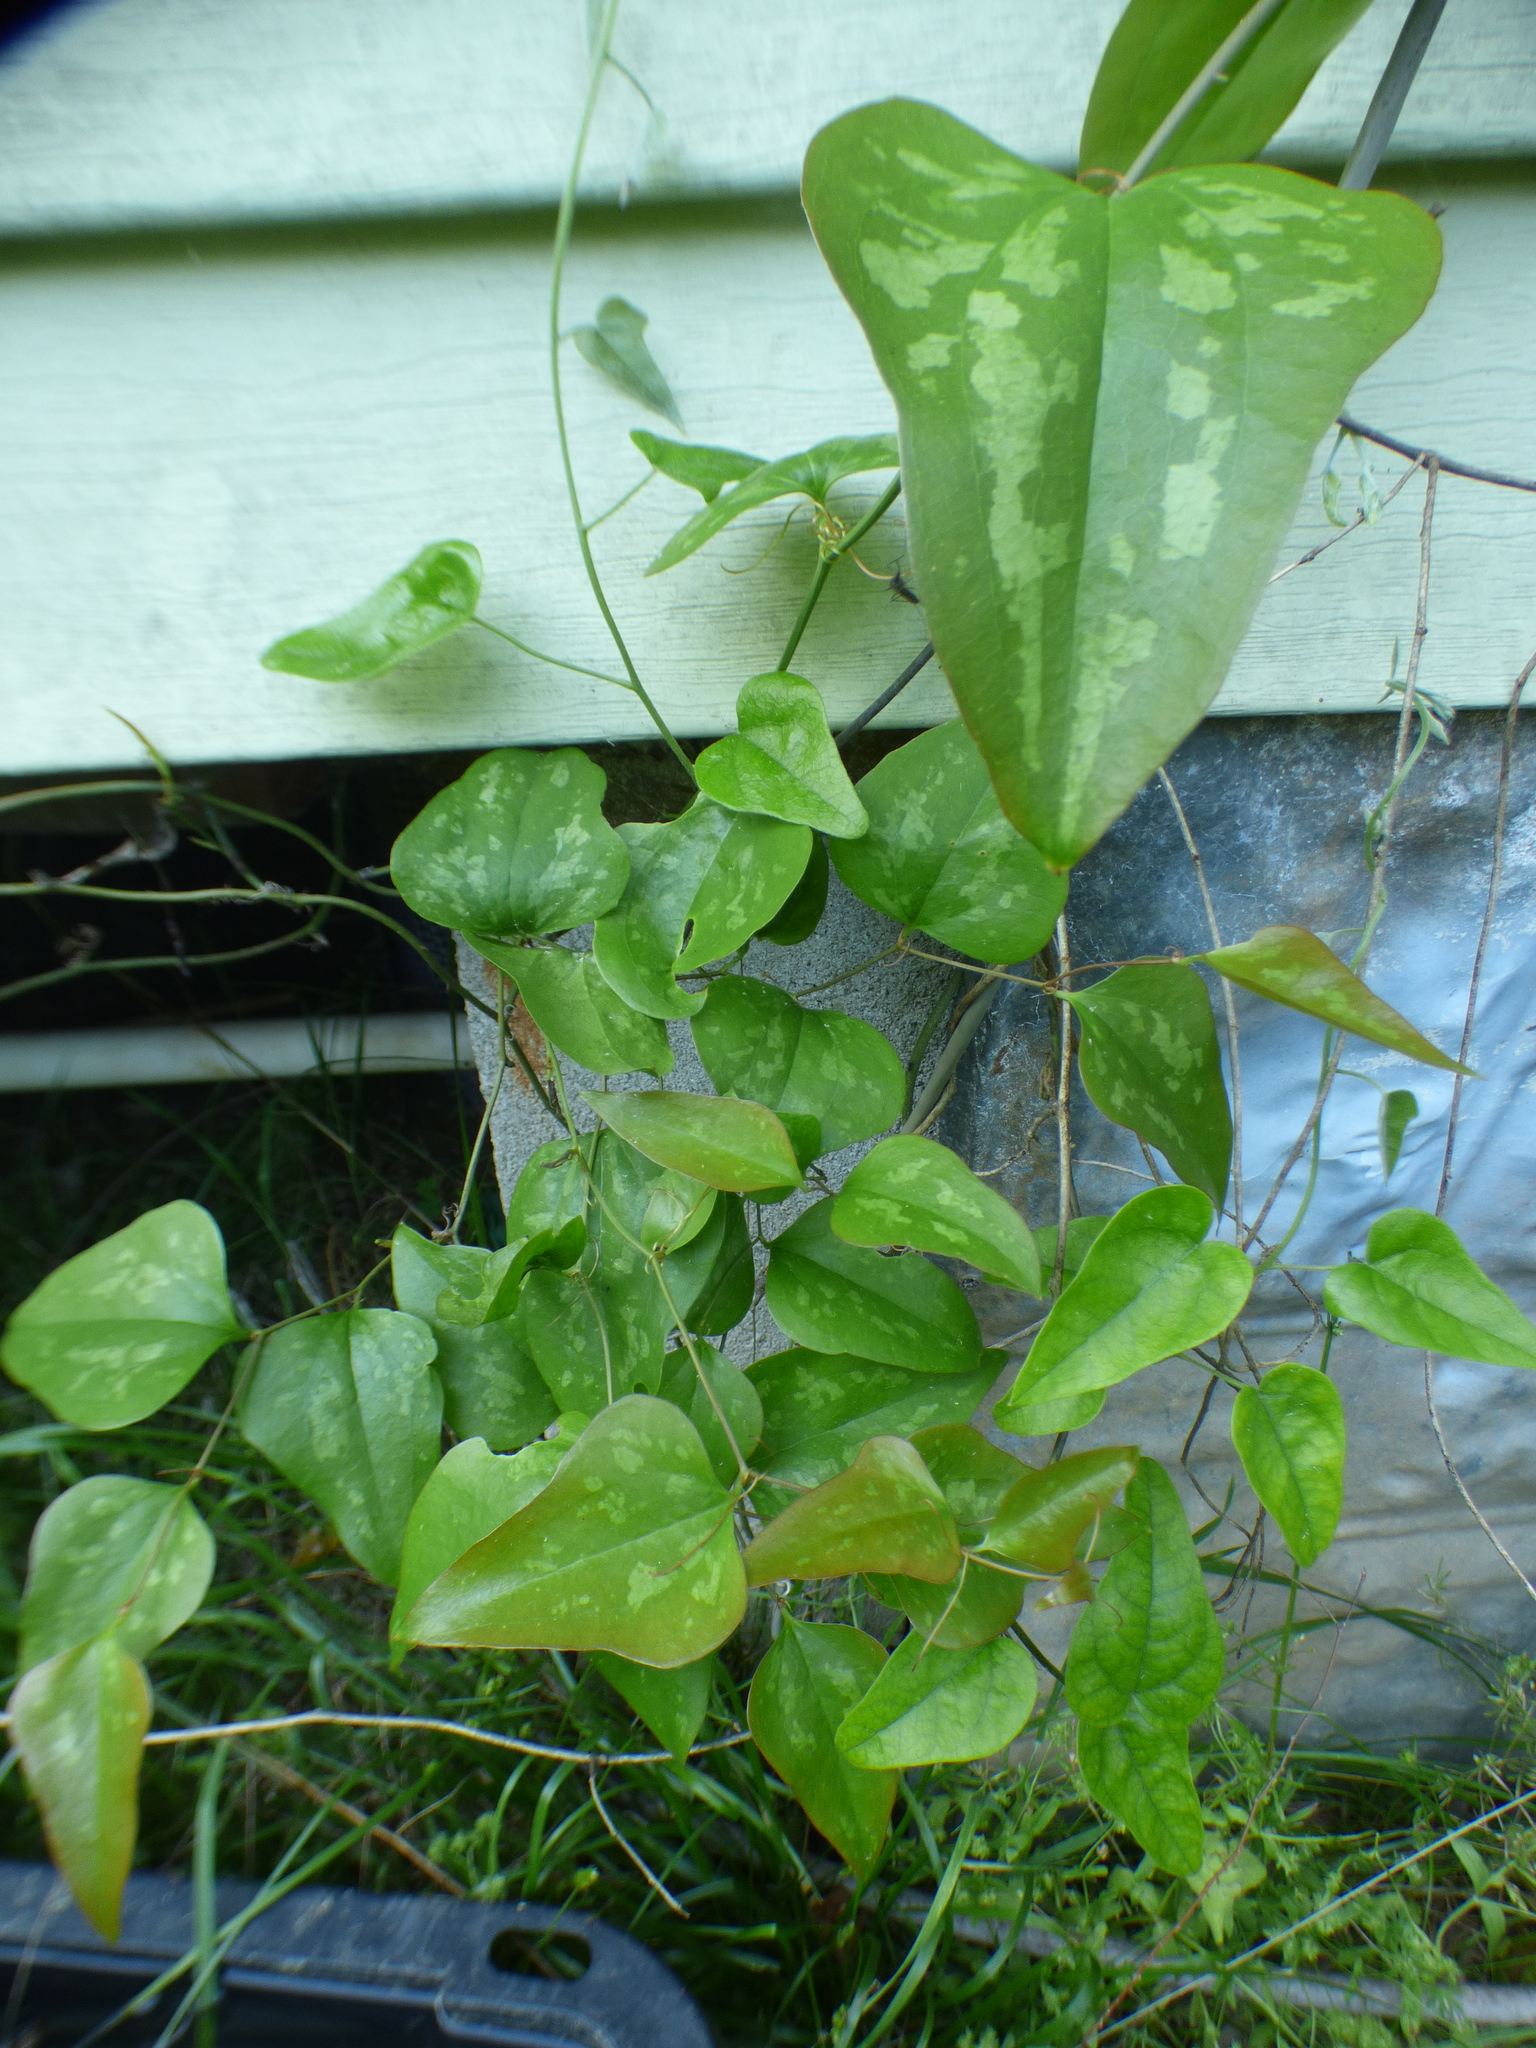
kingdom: Plantae
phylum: Tracheophyta
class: Liliopsida
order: Liliales
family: Smilacaceae
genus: Smilax
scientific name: Smilax bona-nox
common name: Catbrier
